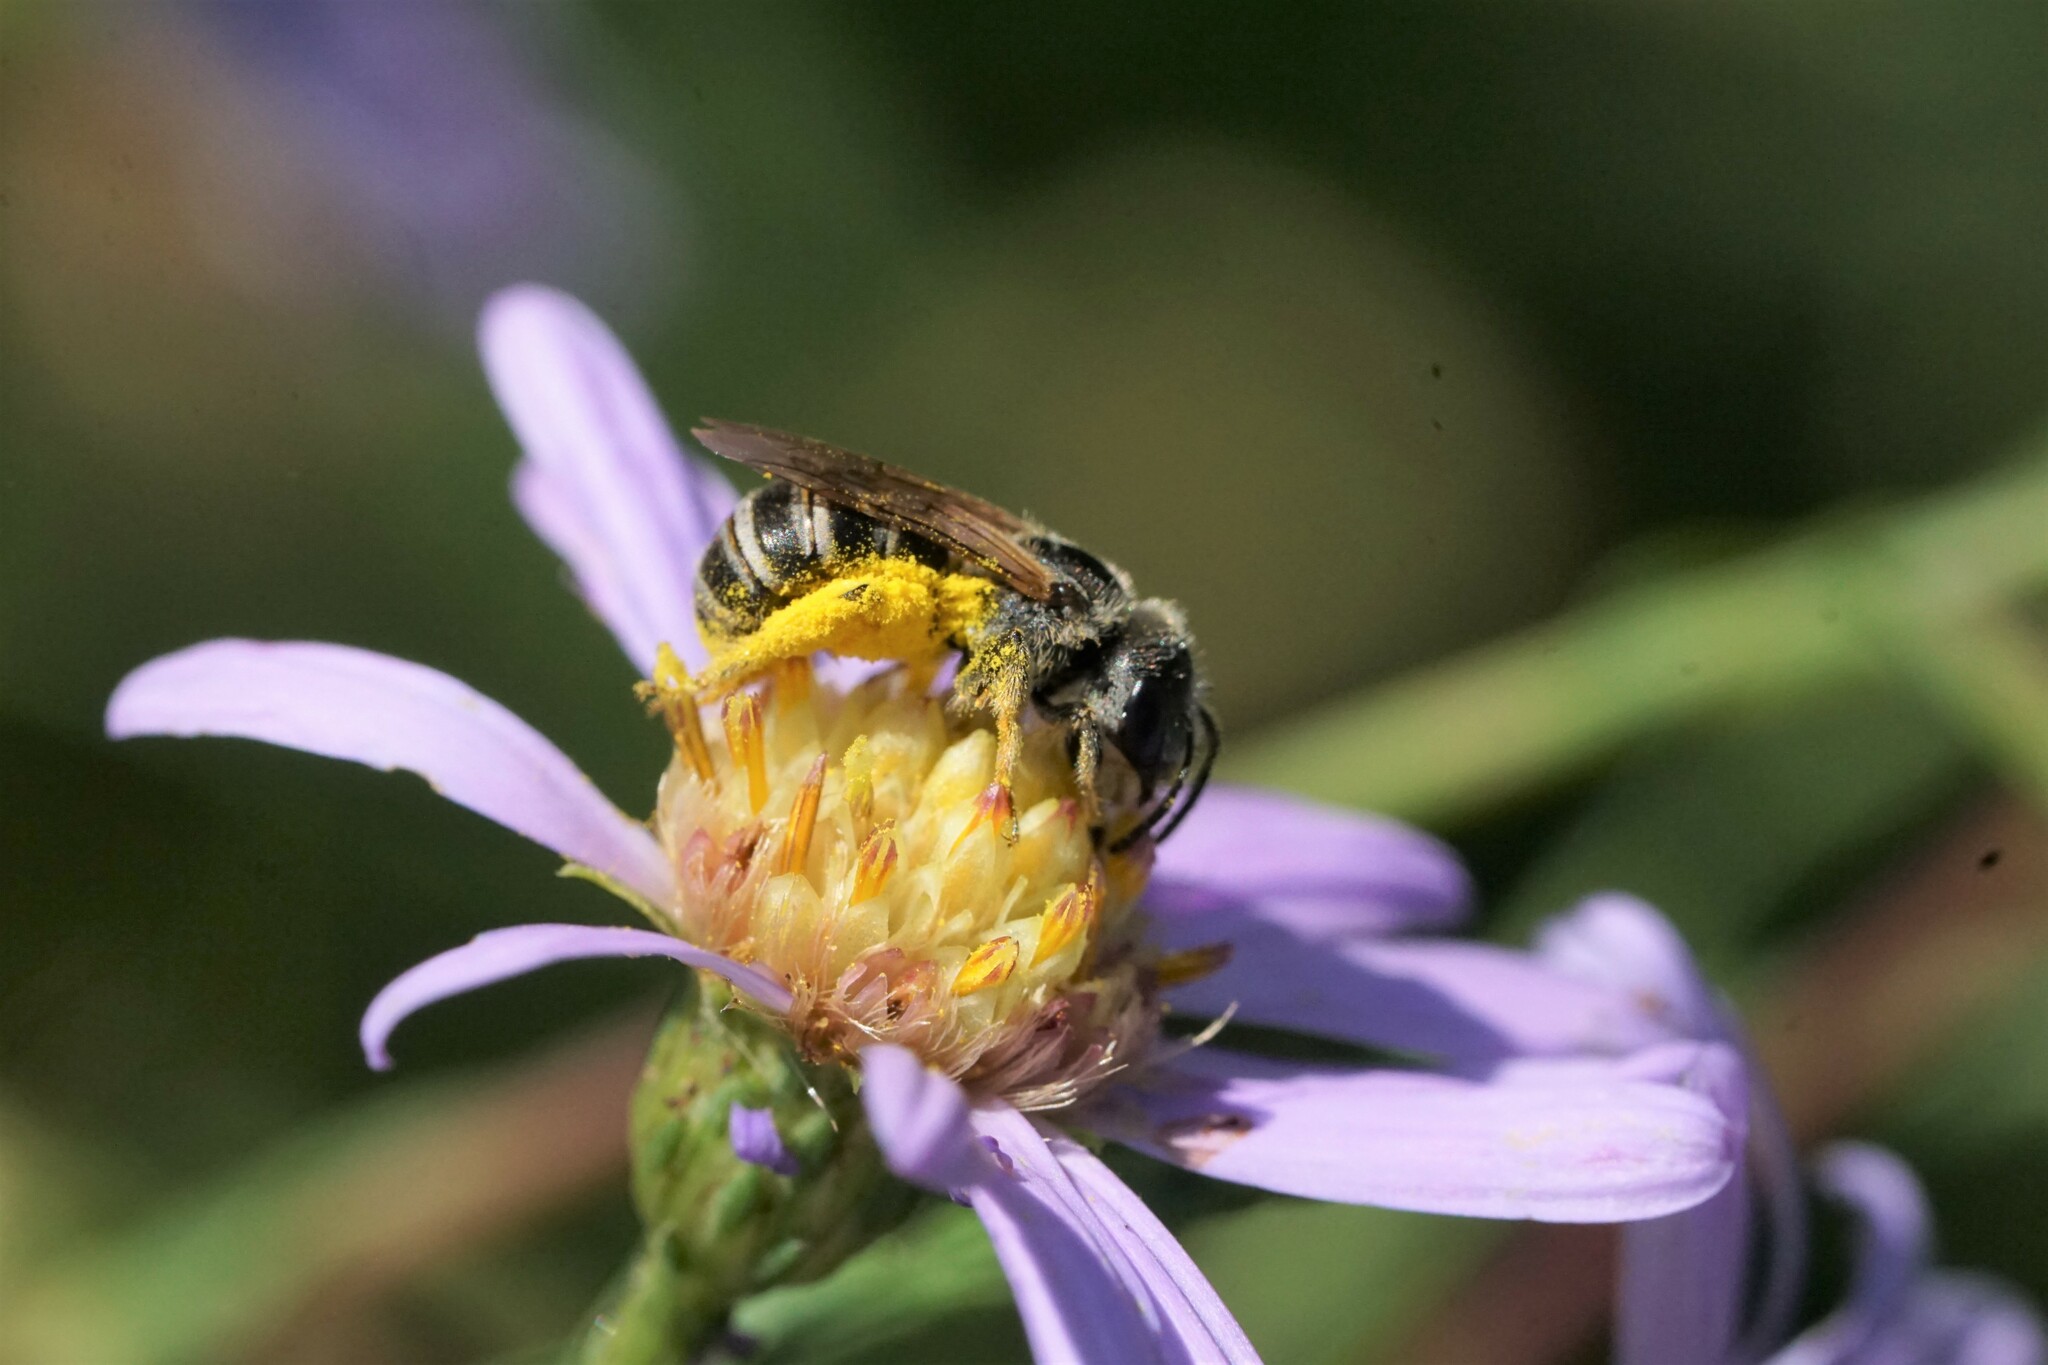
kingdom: Animalia
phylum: Arthropoda
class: Insecta
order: Hymenoptera
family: Halictidae
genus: Halictus
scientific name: Halictus ligatus
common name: Ligated furrow bee
